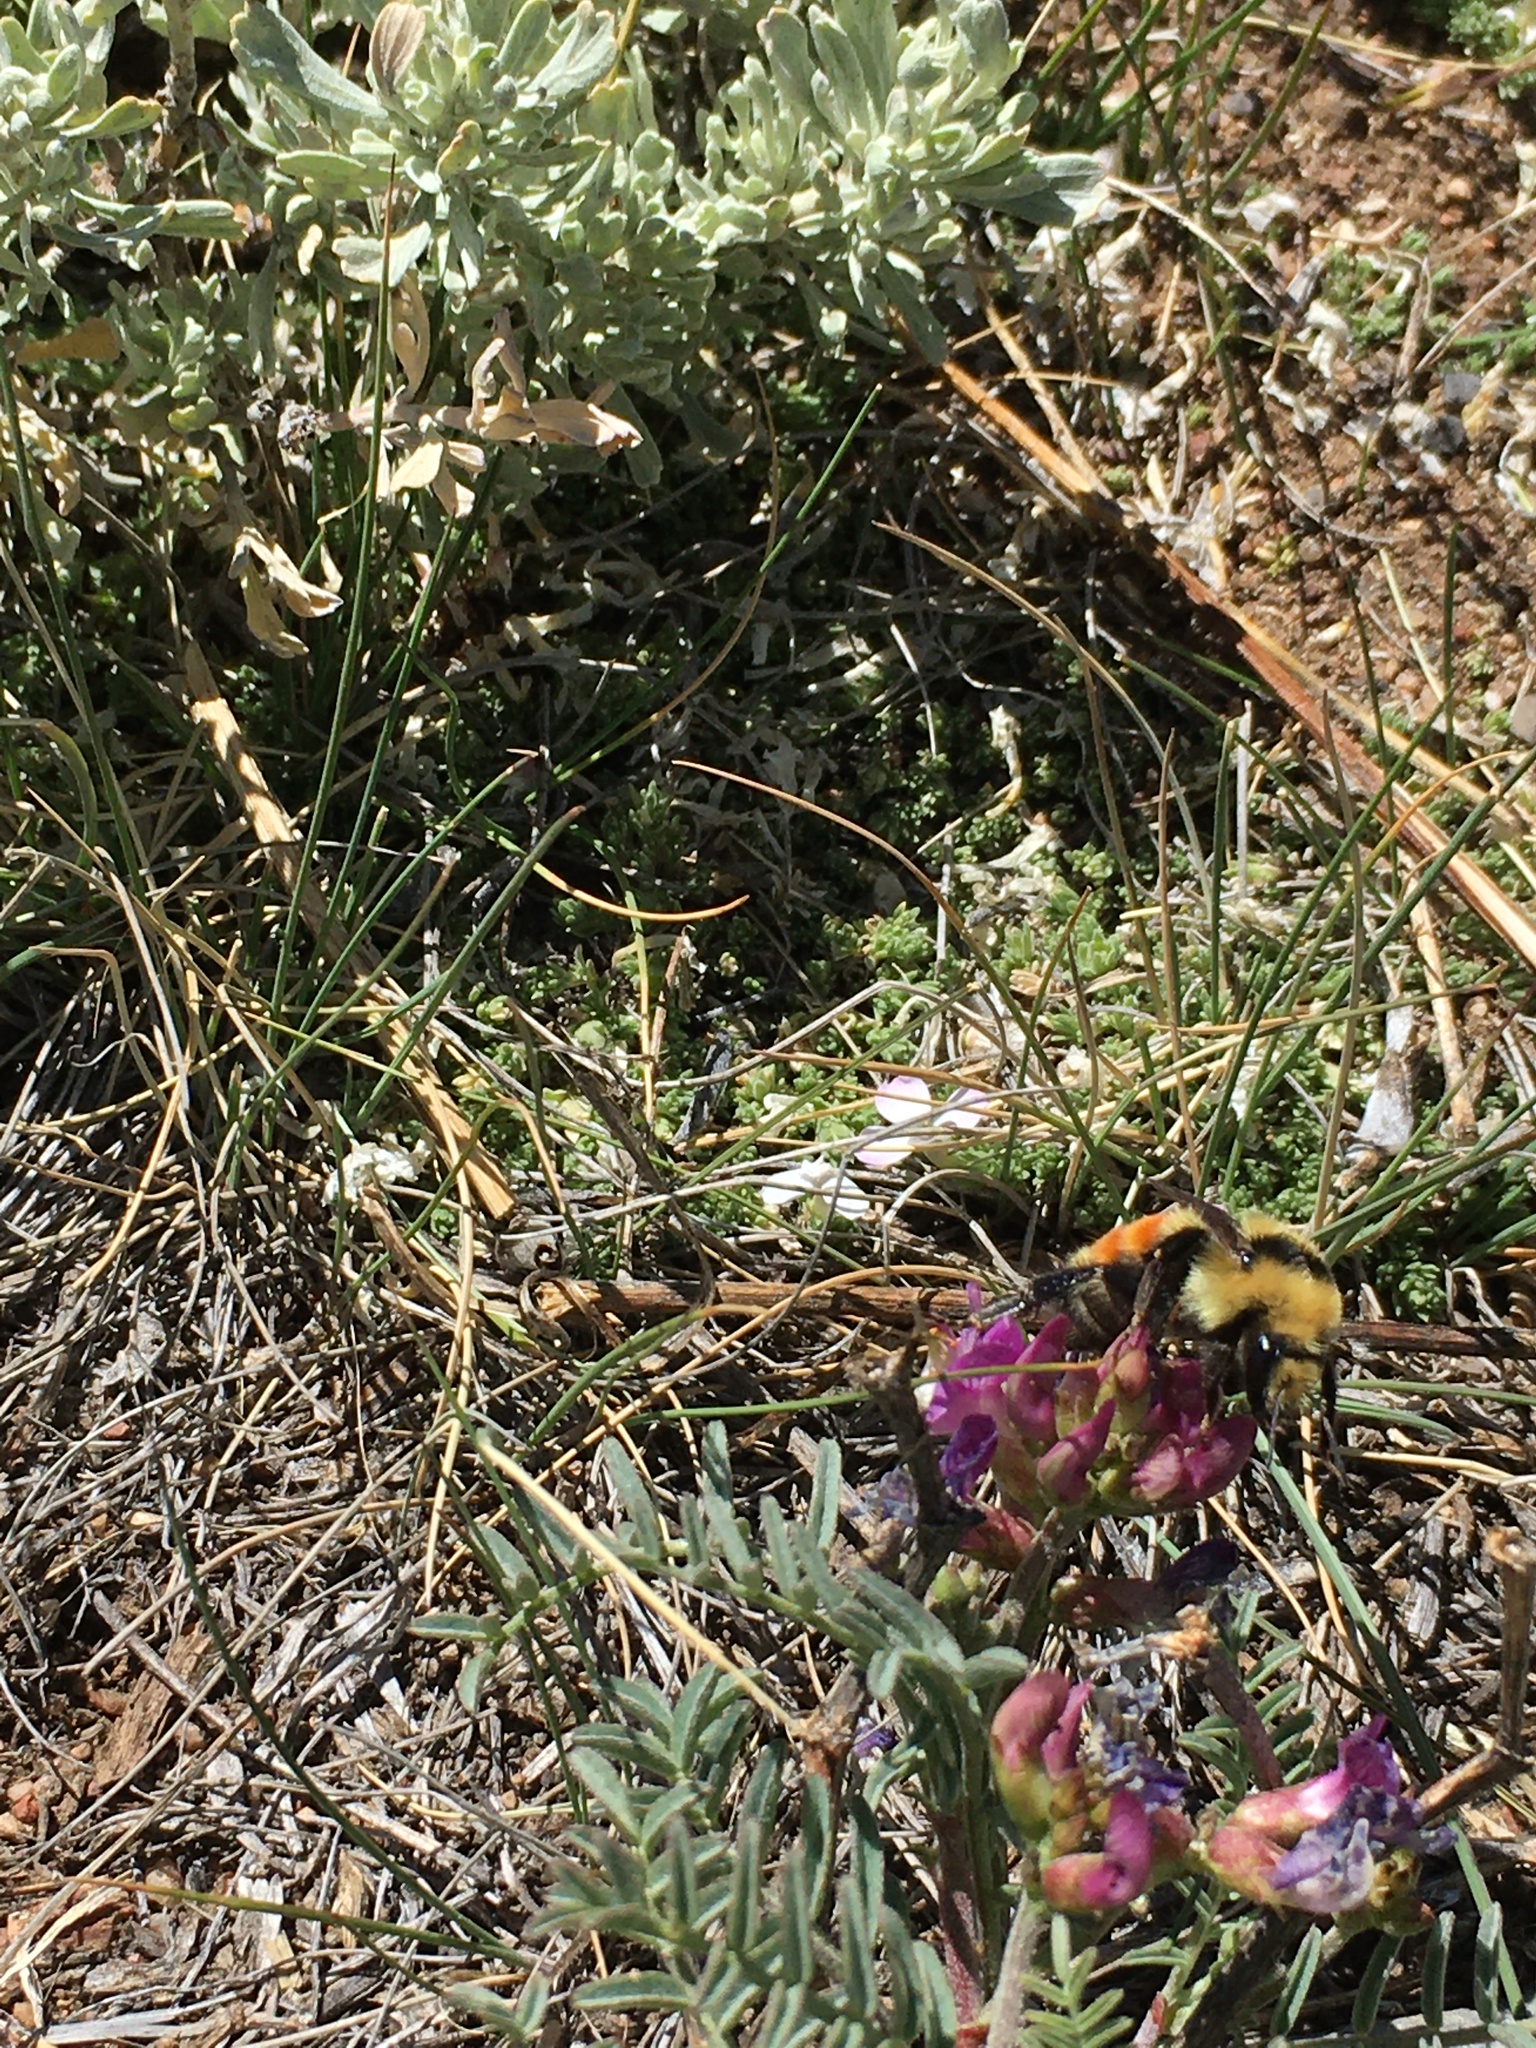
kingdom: Animalia
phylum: Arthropoda
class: Insecta
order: Hymenoptera
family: Apidae
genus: Bombus
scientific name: Bombus huntii
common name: Hunt bumble bee
